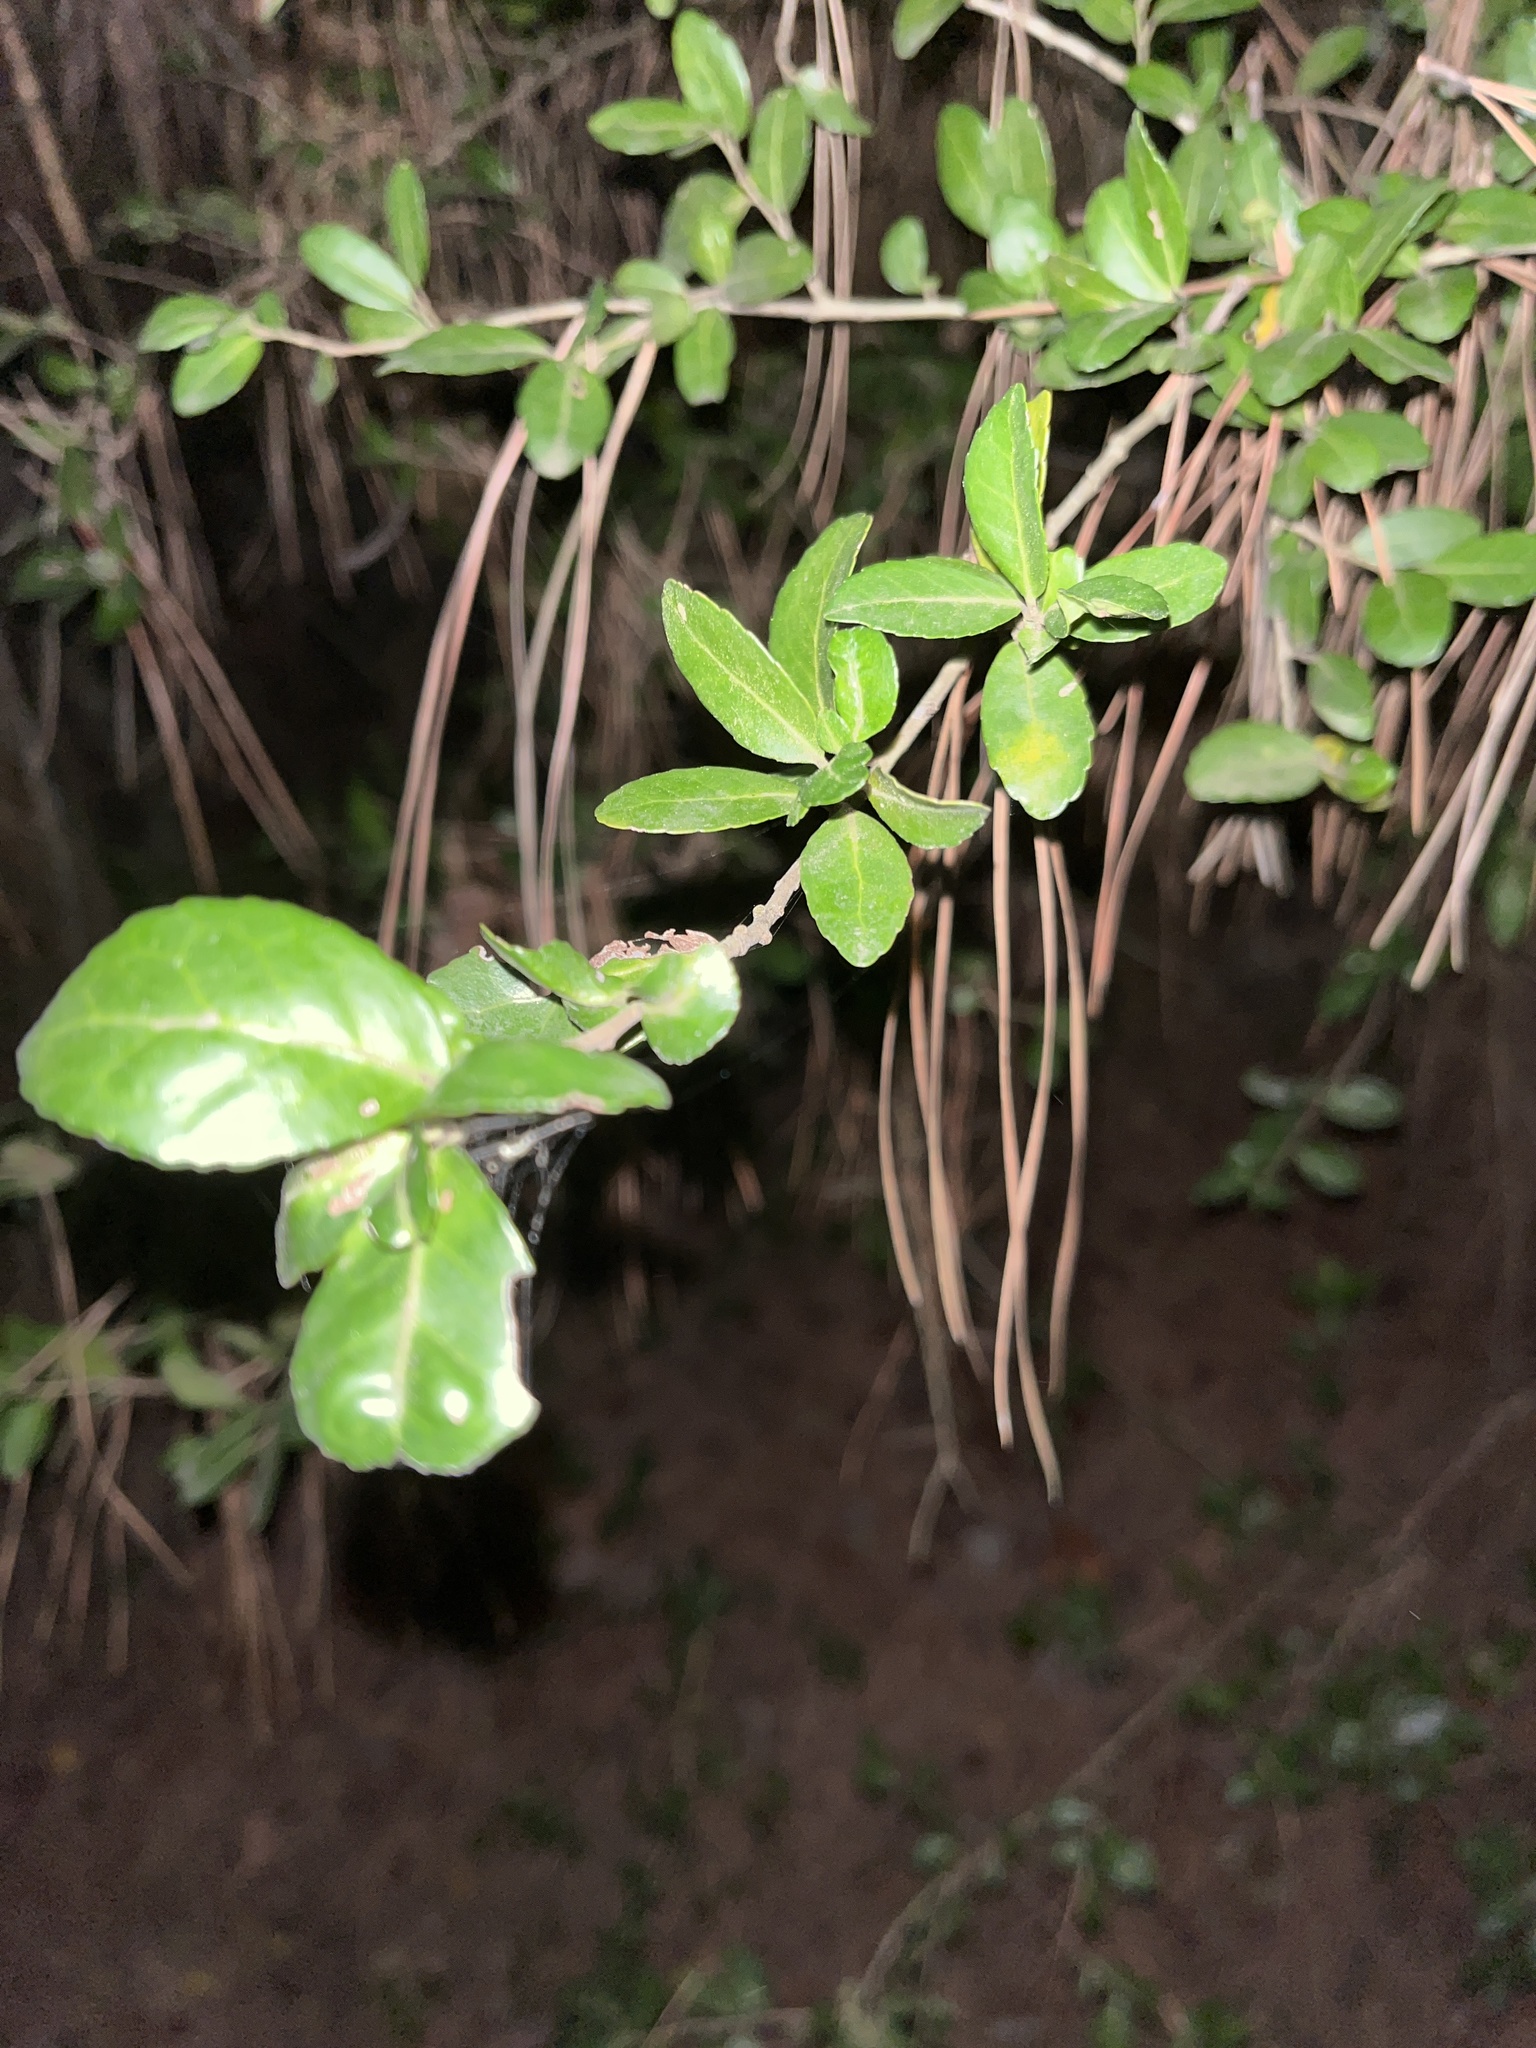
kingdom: Plantae
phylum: Tracheophyta
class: Magnoliopsida
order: Aquifoliales
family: Aquifoliaceae
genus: Ilex
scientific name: Ilex vomitoria
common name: Yaupon holly
